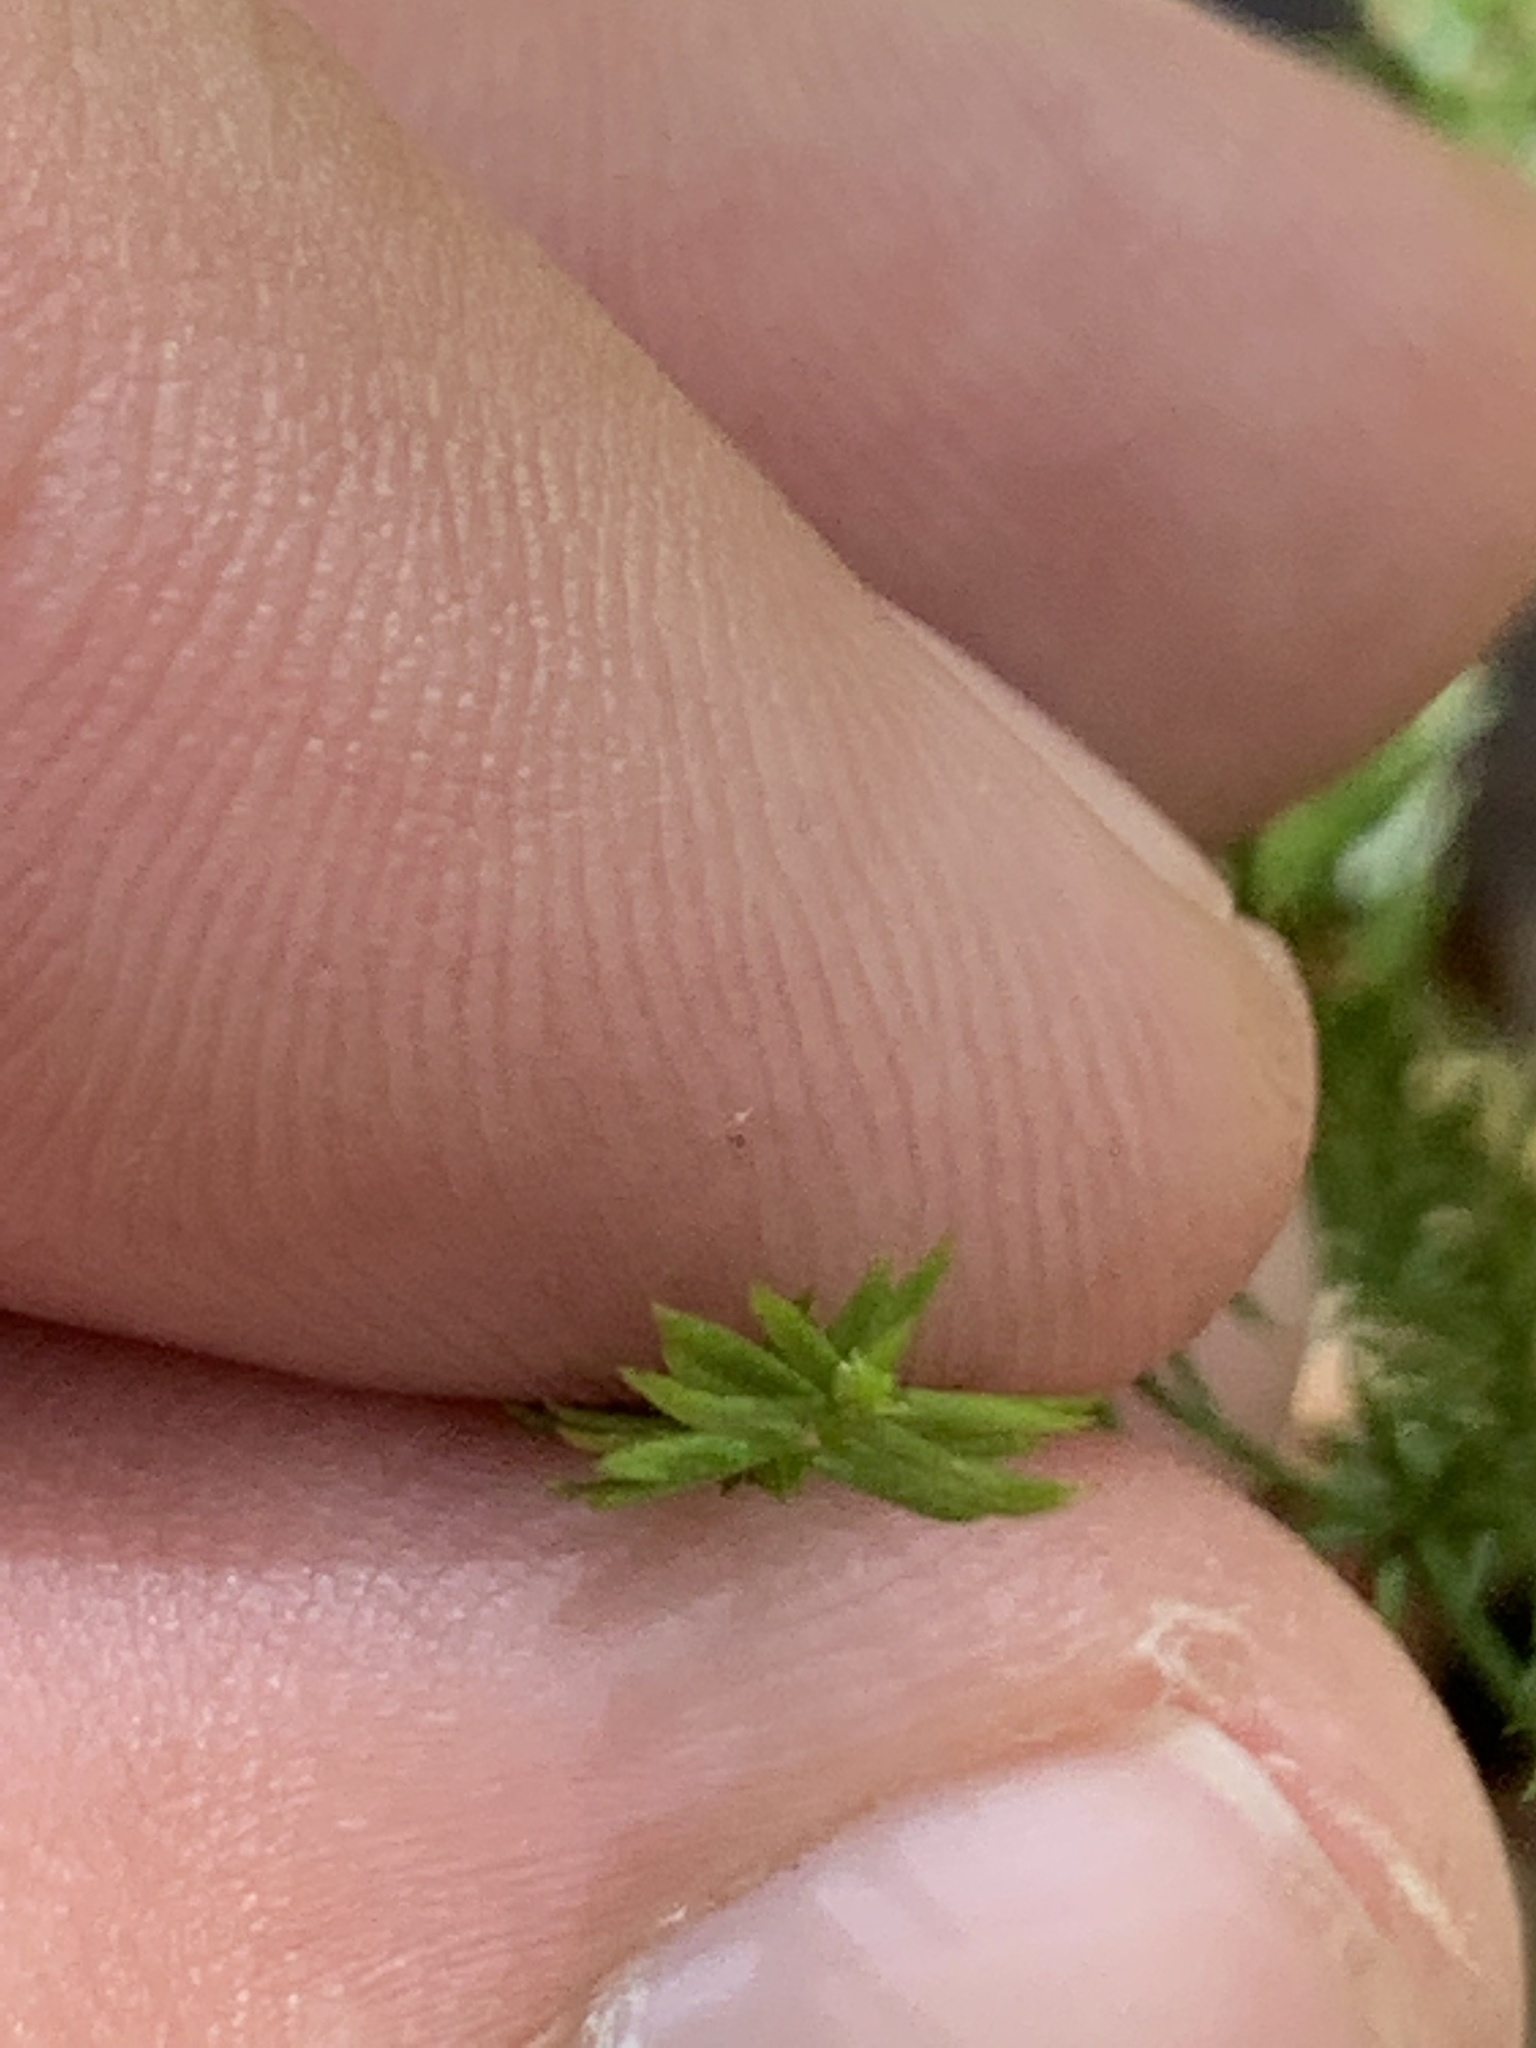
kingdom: Plantae
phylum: Tracheophyta
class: Lycopodiopsida
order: Lycopodiales
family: Lycopodiaceae
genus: Dendrolycopodium
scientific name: Dendrolycopodium dendroideum
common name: Northern tree-clubmoss
